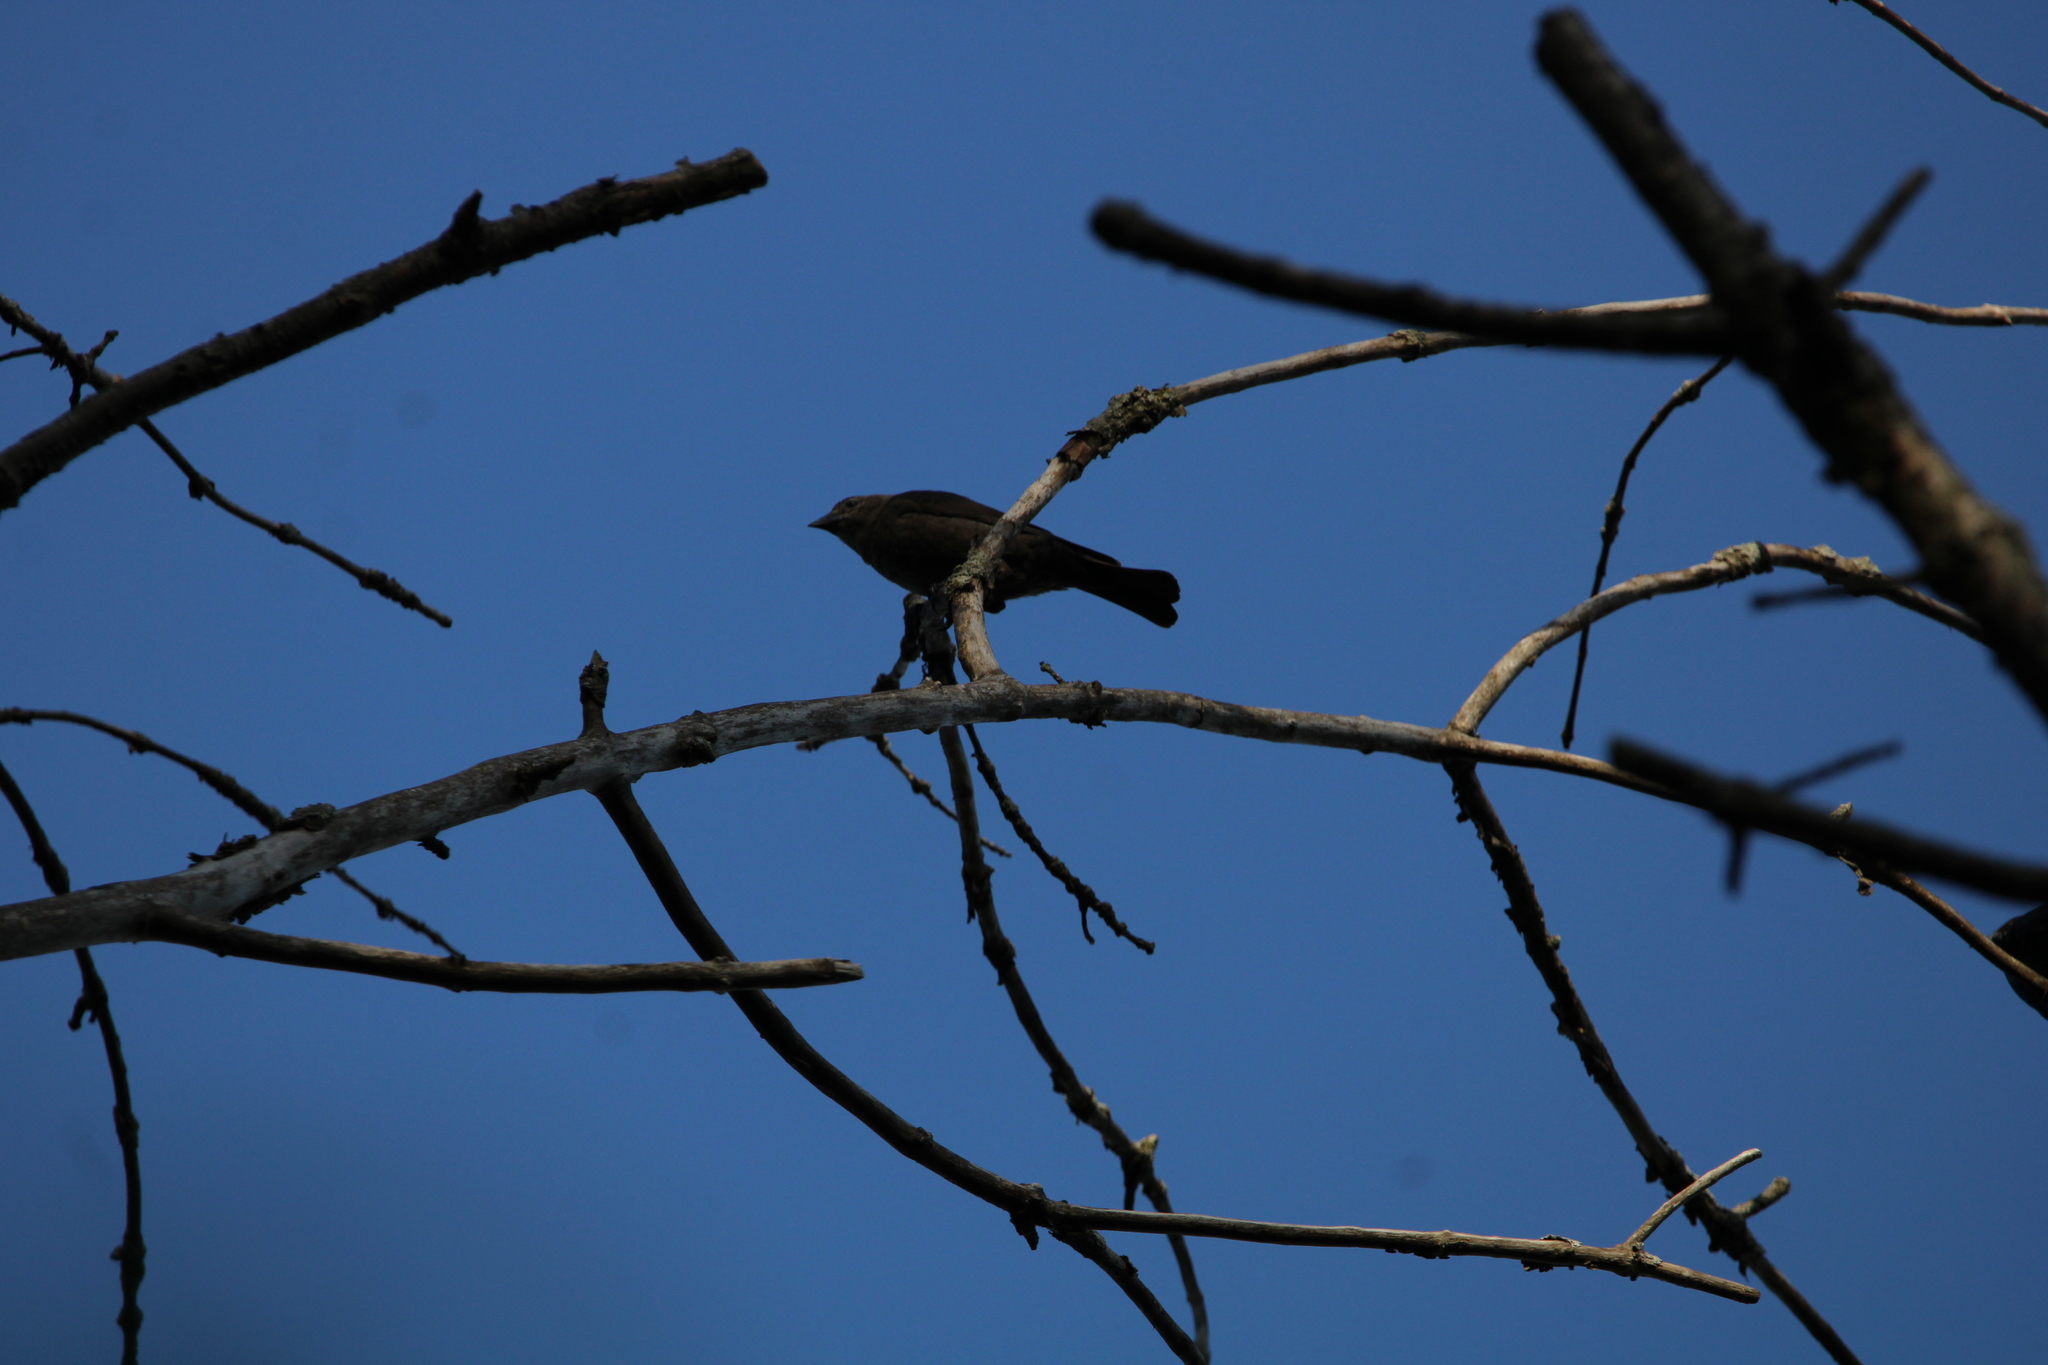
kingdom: Animalia
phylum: Chordata
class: Aves
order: Passeriformes
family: Icteridae
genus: Molothrus
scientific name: Molothrus ater
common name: Brown-headed cowbird
